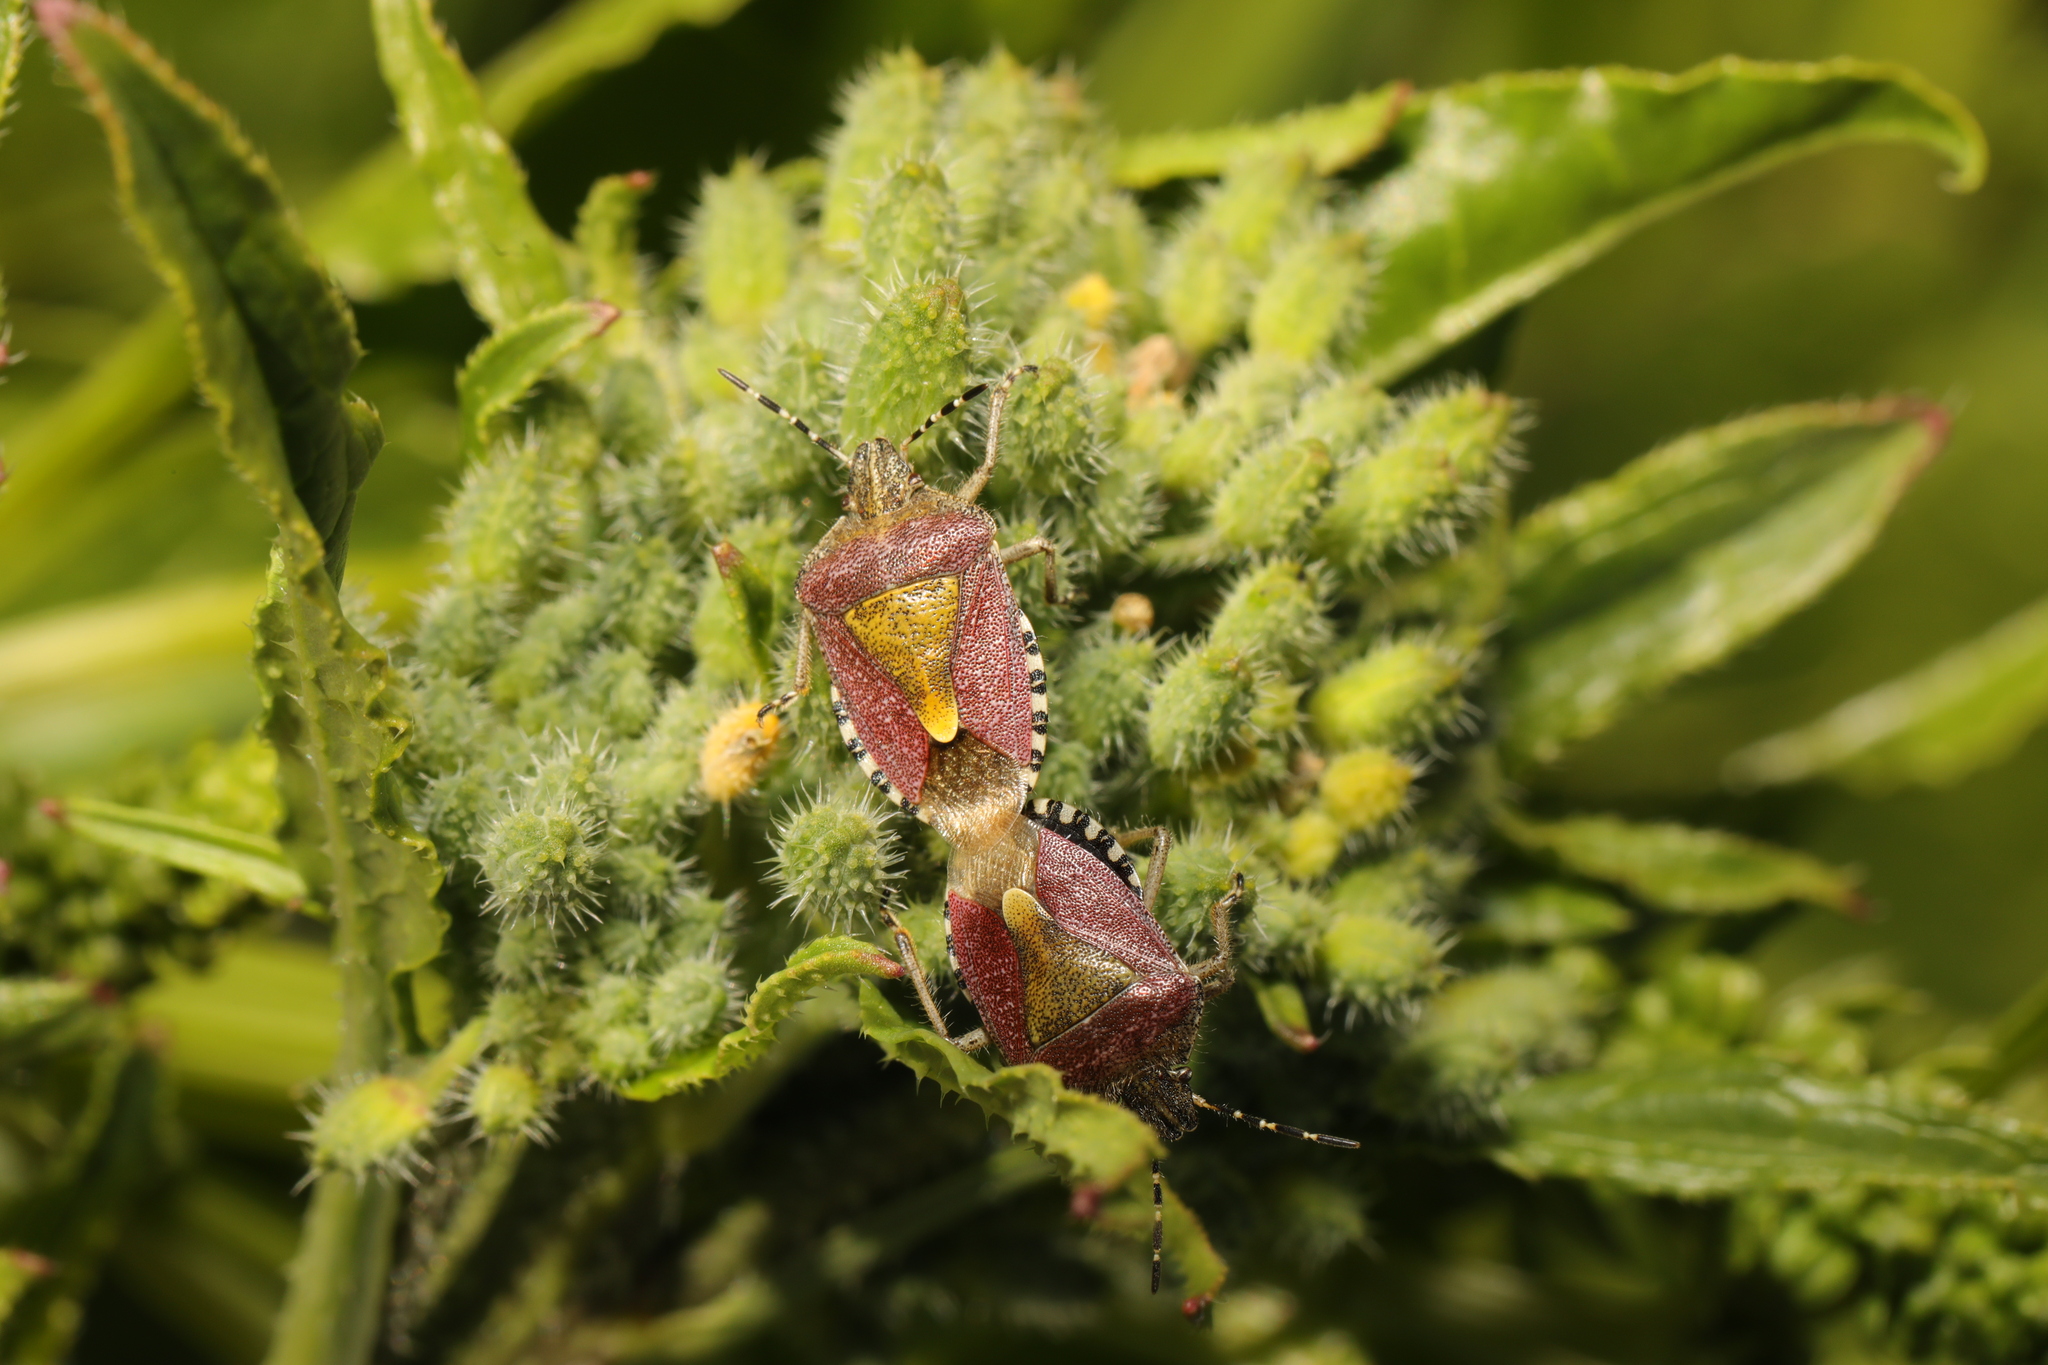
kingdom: Animalia
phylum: Arthropoda
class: Insecta
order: Hemiptera
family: Pentatomidae
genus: Dolycoris
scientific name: Dolycoris baccarum
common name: Sloe bug
